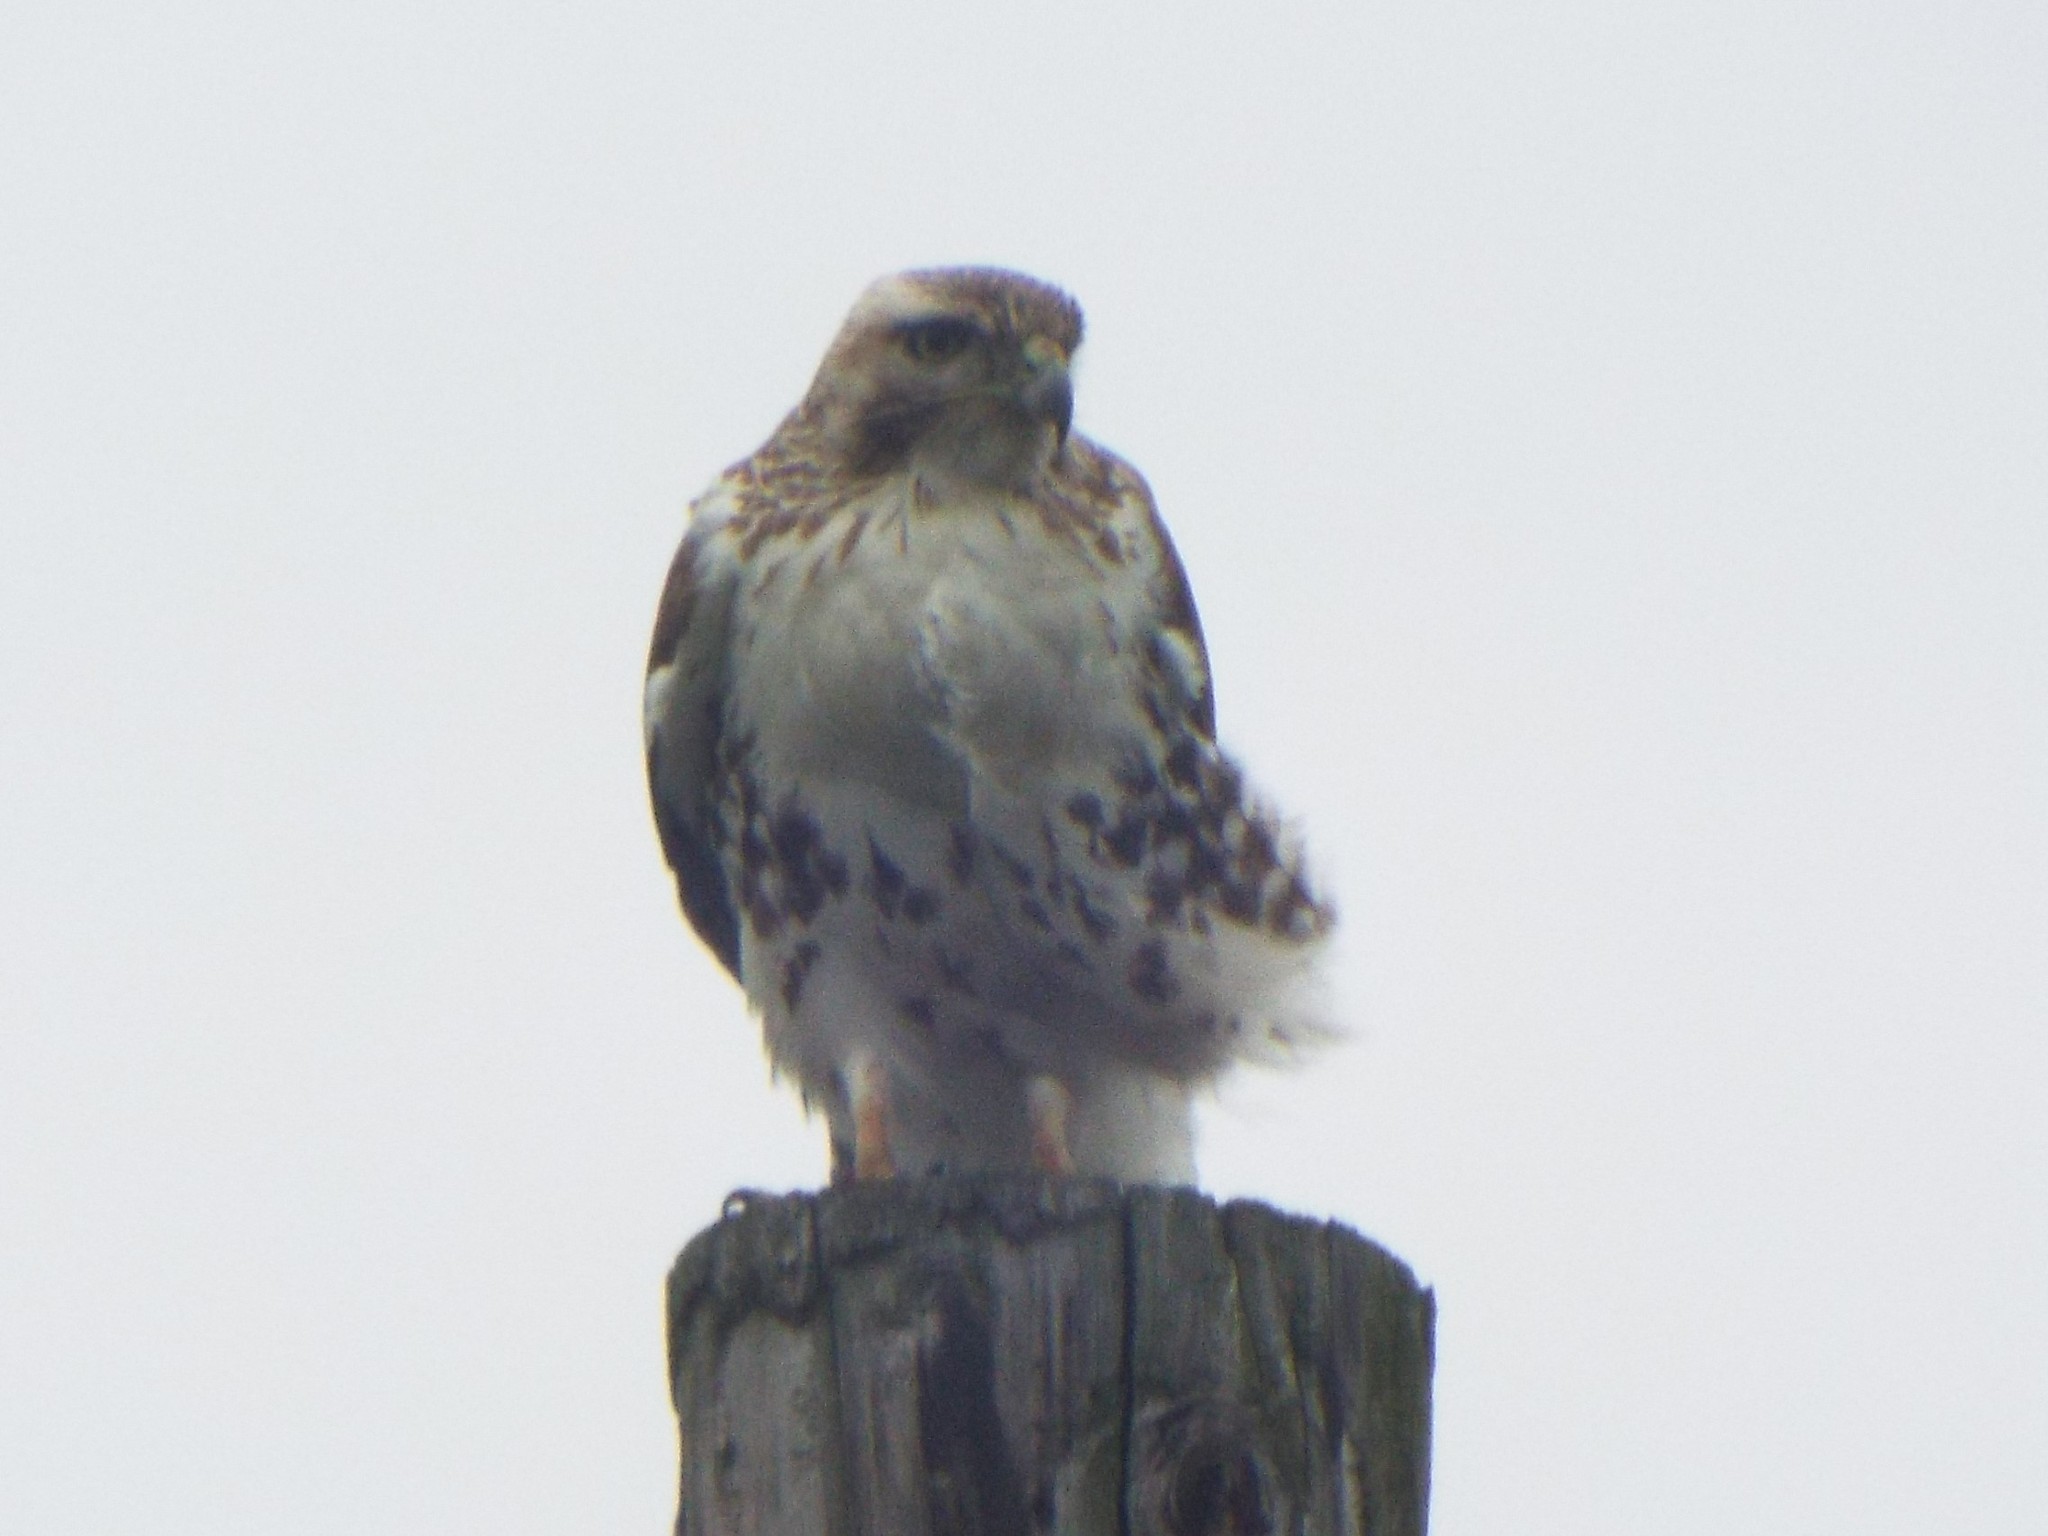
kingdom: Animalia
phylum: Chordata
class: Aves
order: Accipitriformes
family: Accipitridae
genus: Buteo
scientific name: Buteo jamaicensis
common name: Red-tailed hawk
